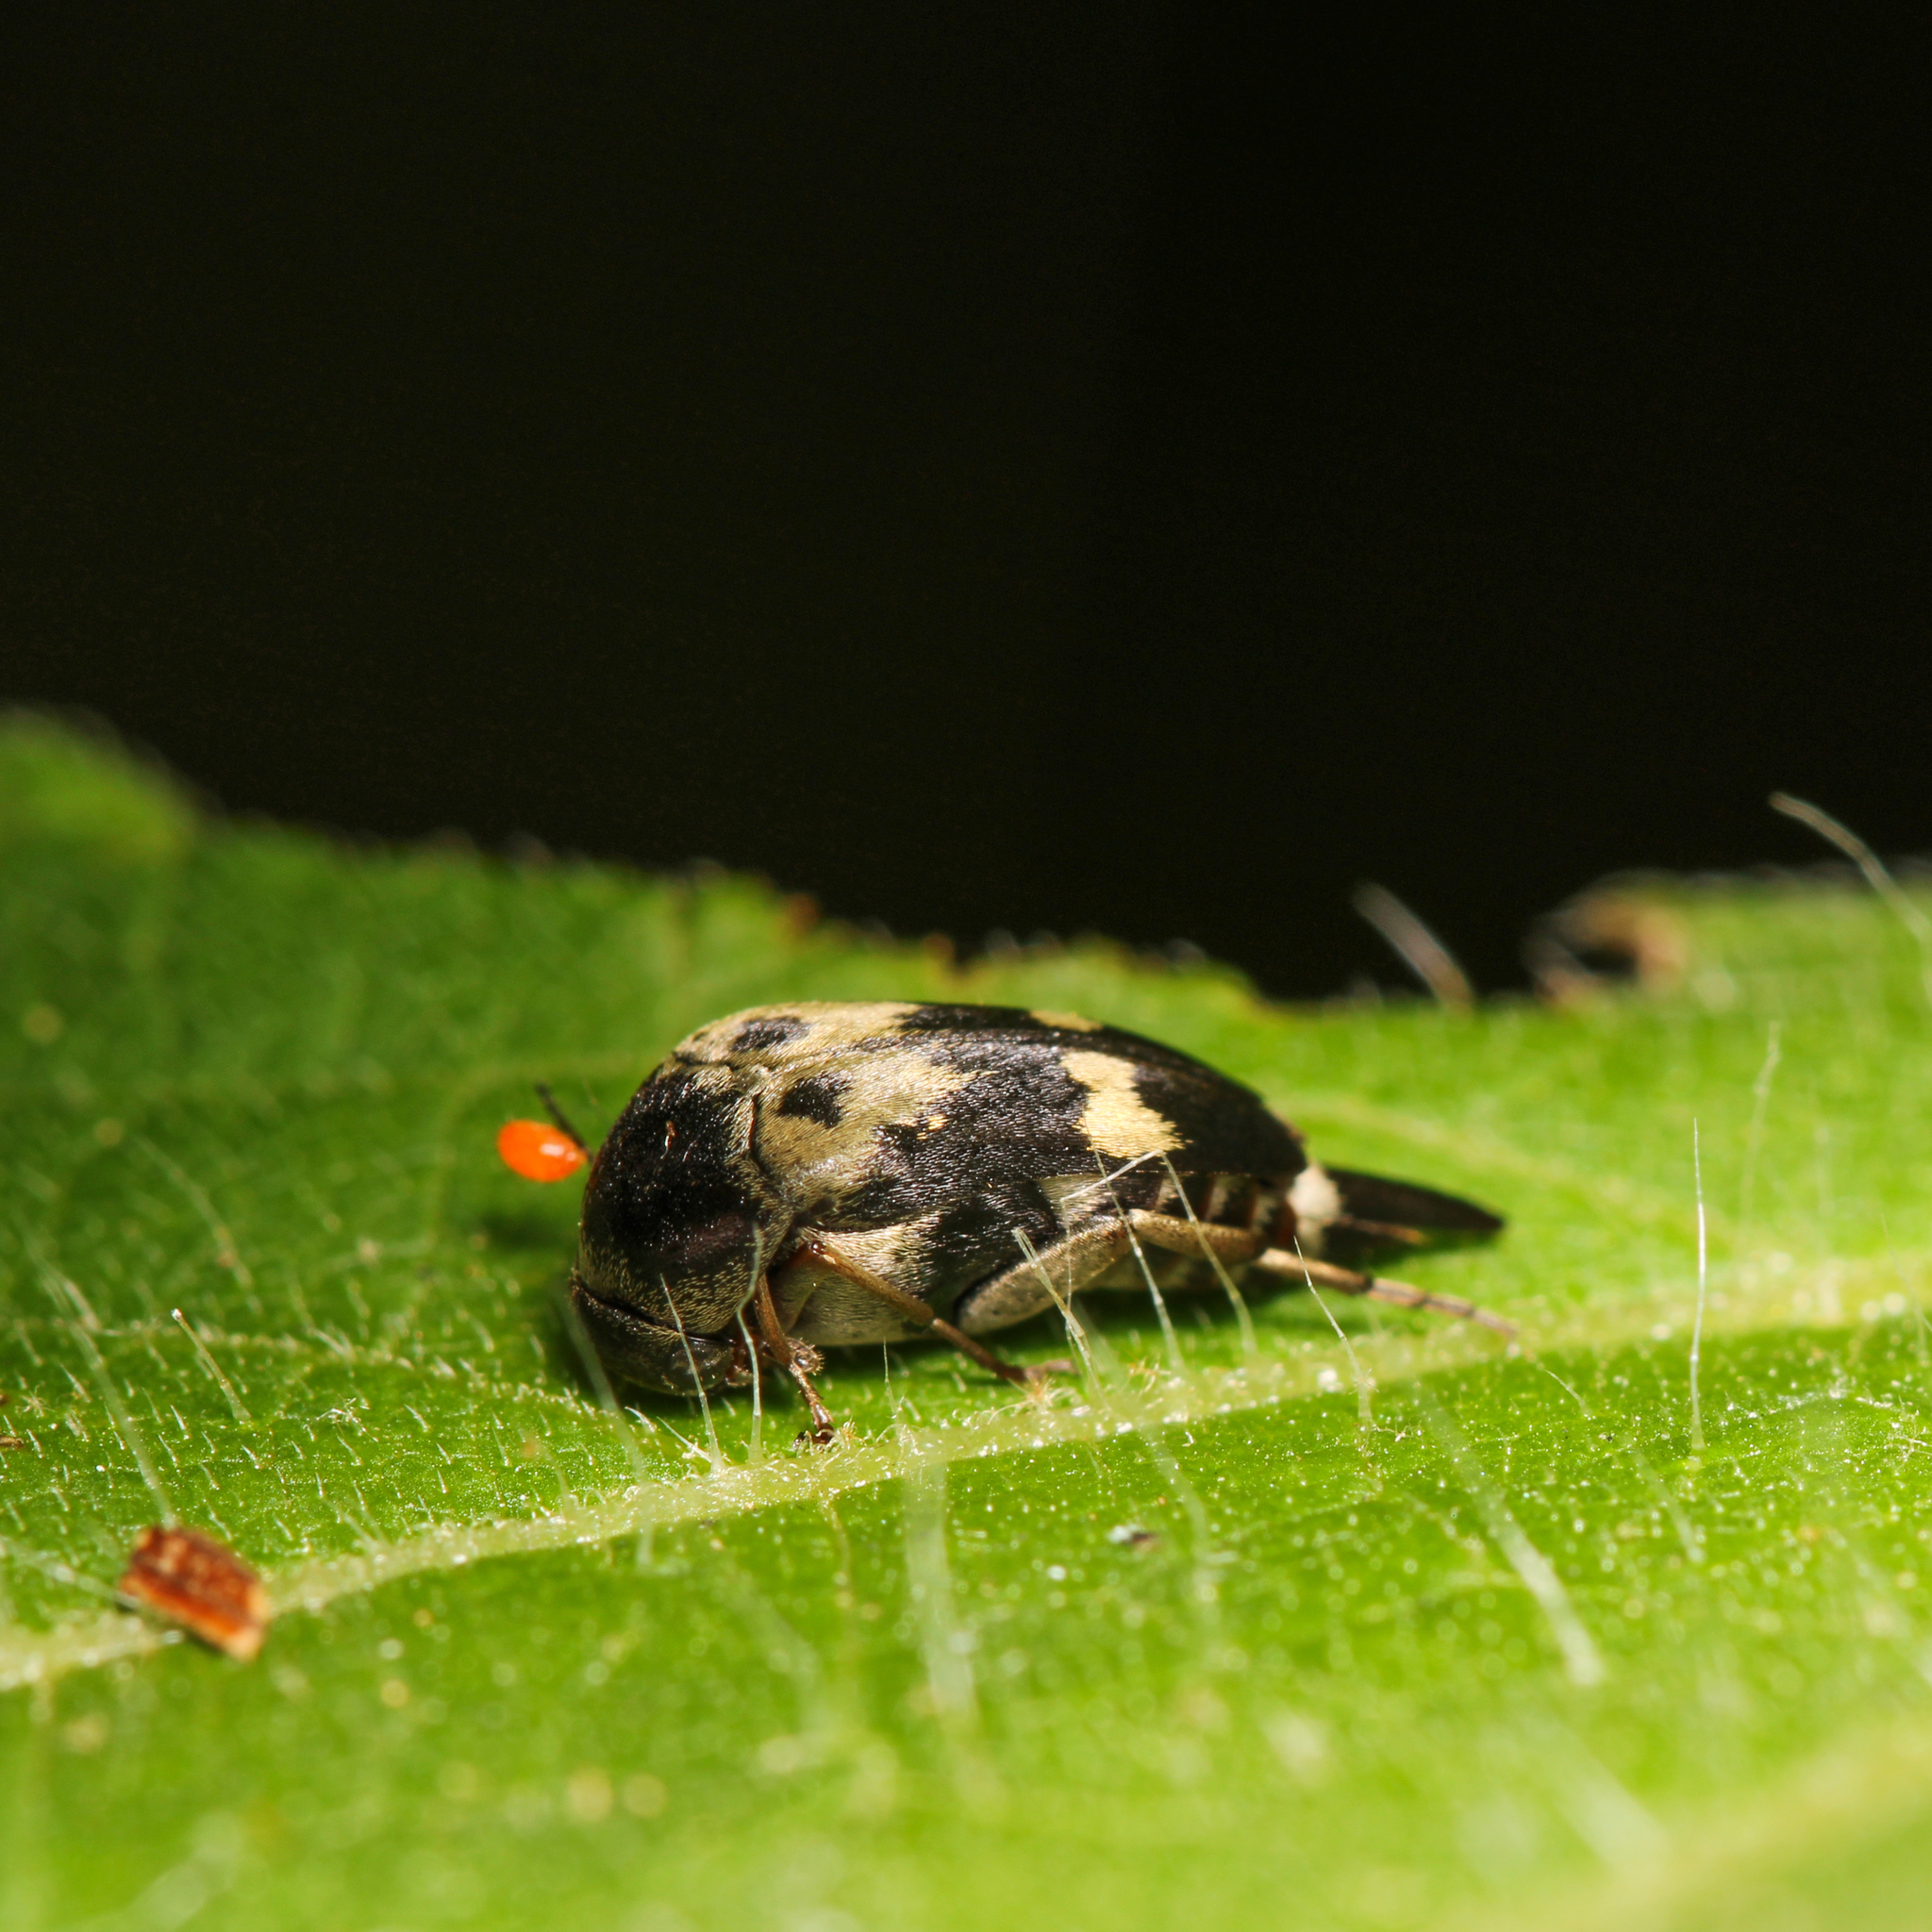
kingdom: Animalia
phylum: Arthropoda
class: Insecta
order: Coleoptera
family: Mordellidae
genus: Glipa
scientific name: Glipa oculata
